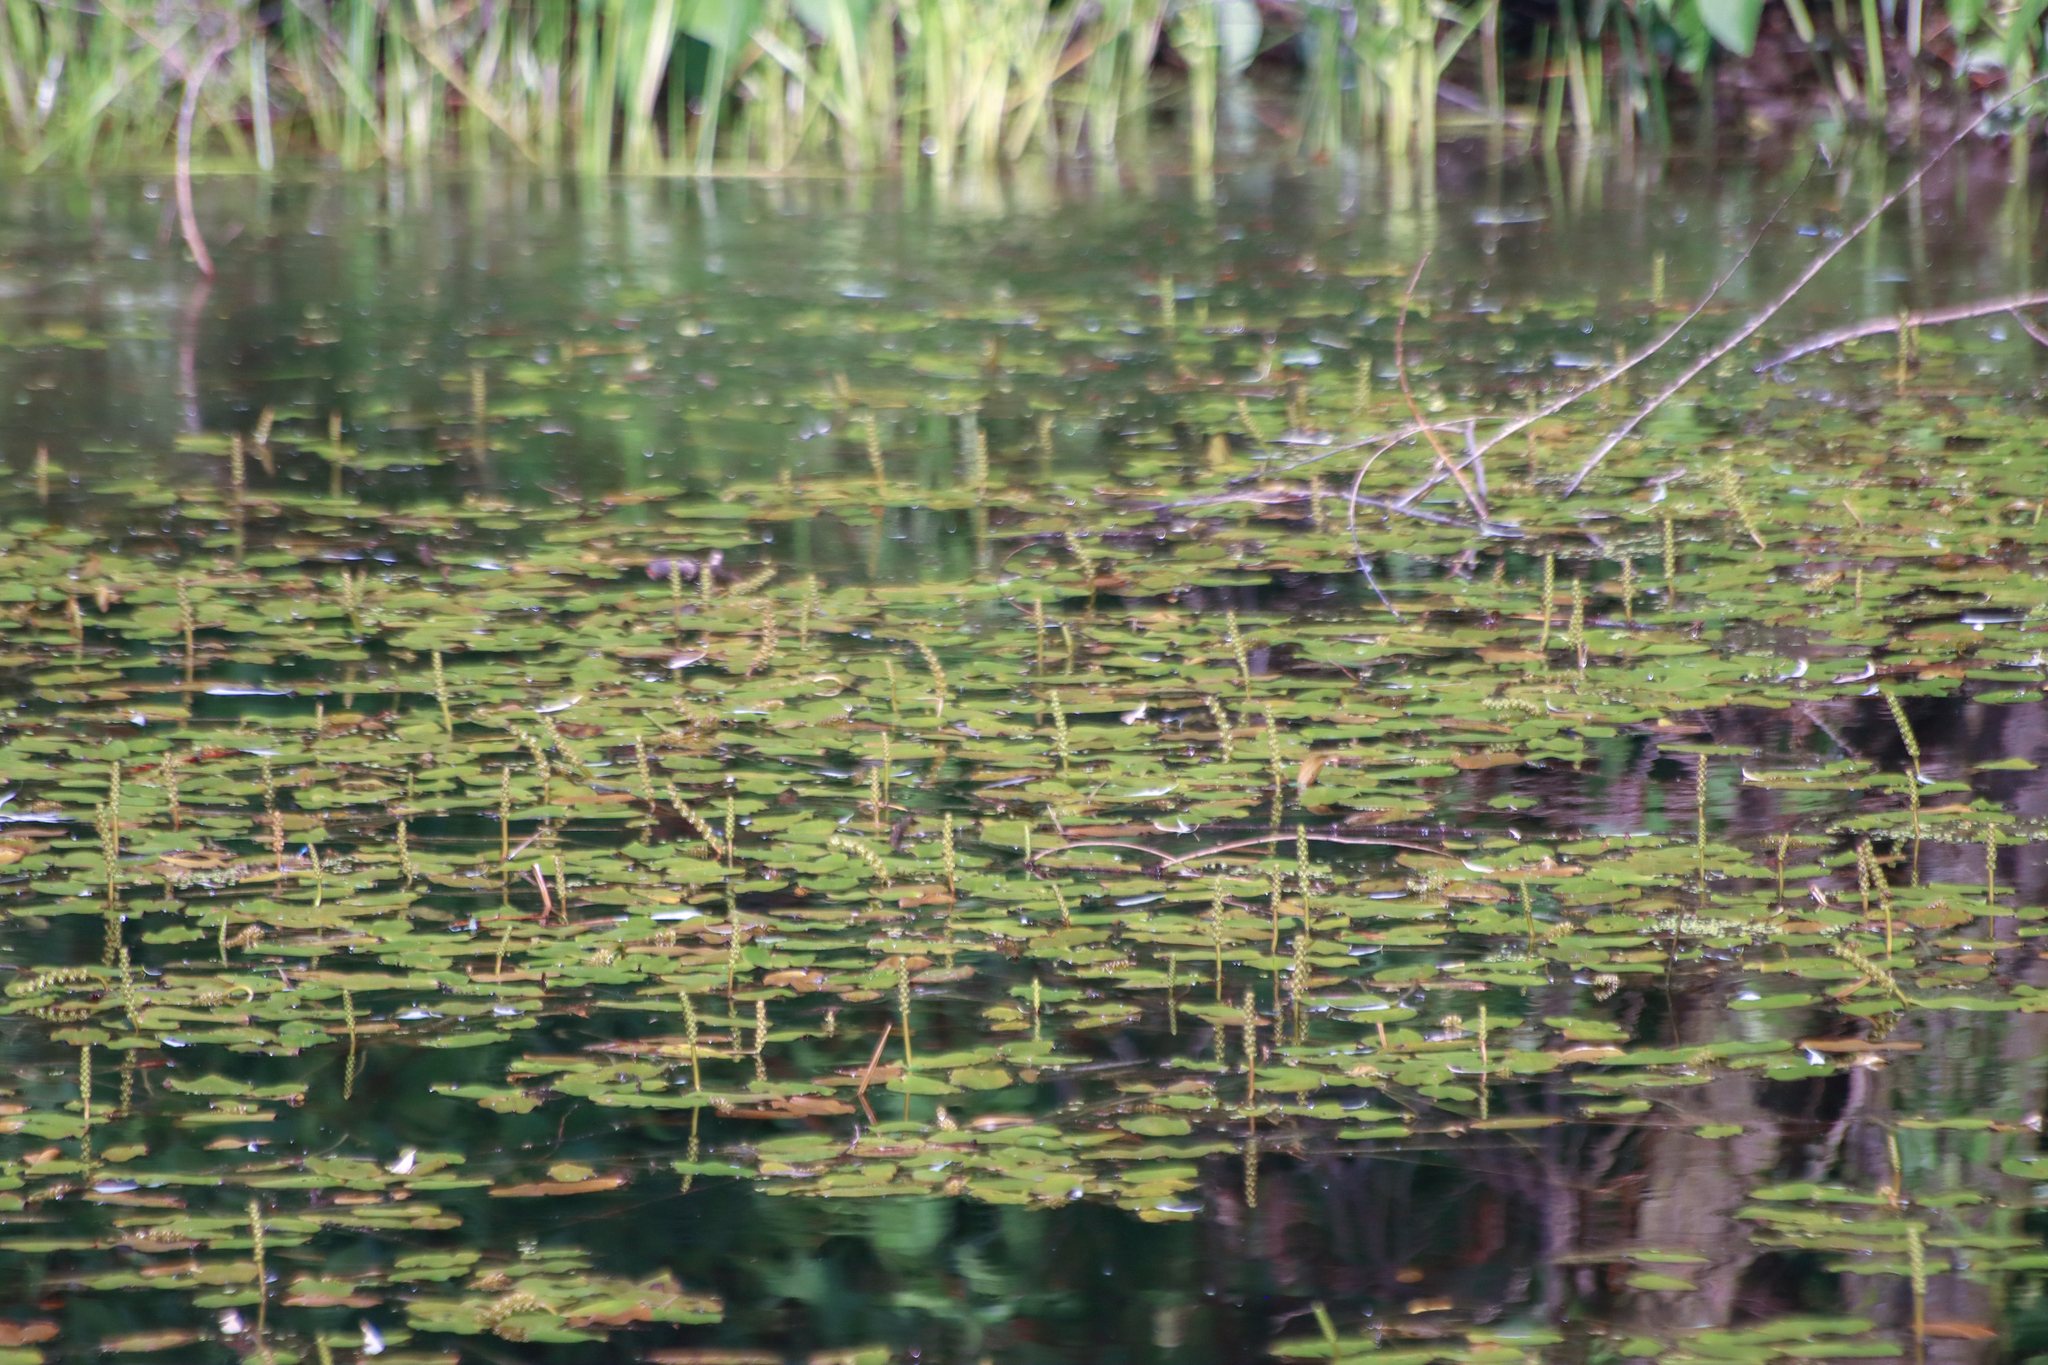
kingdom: Plantae
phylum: Tracheophyta
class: Liliopsida
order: Alismatales
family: Potamogetonaceae
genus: Potamogeton
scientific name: Potamogeton natans
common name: Broad-leaved pondweed
